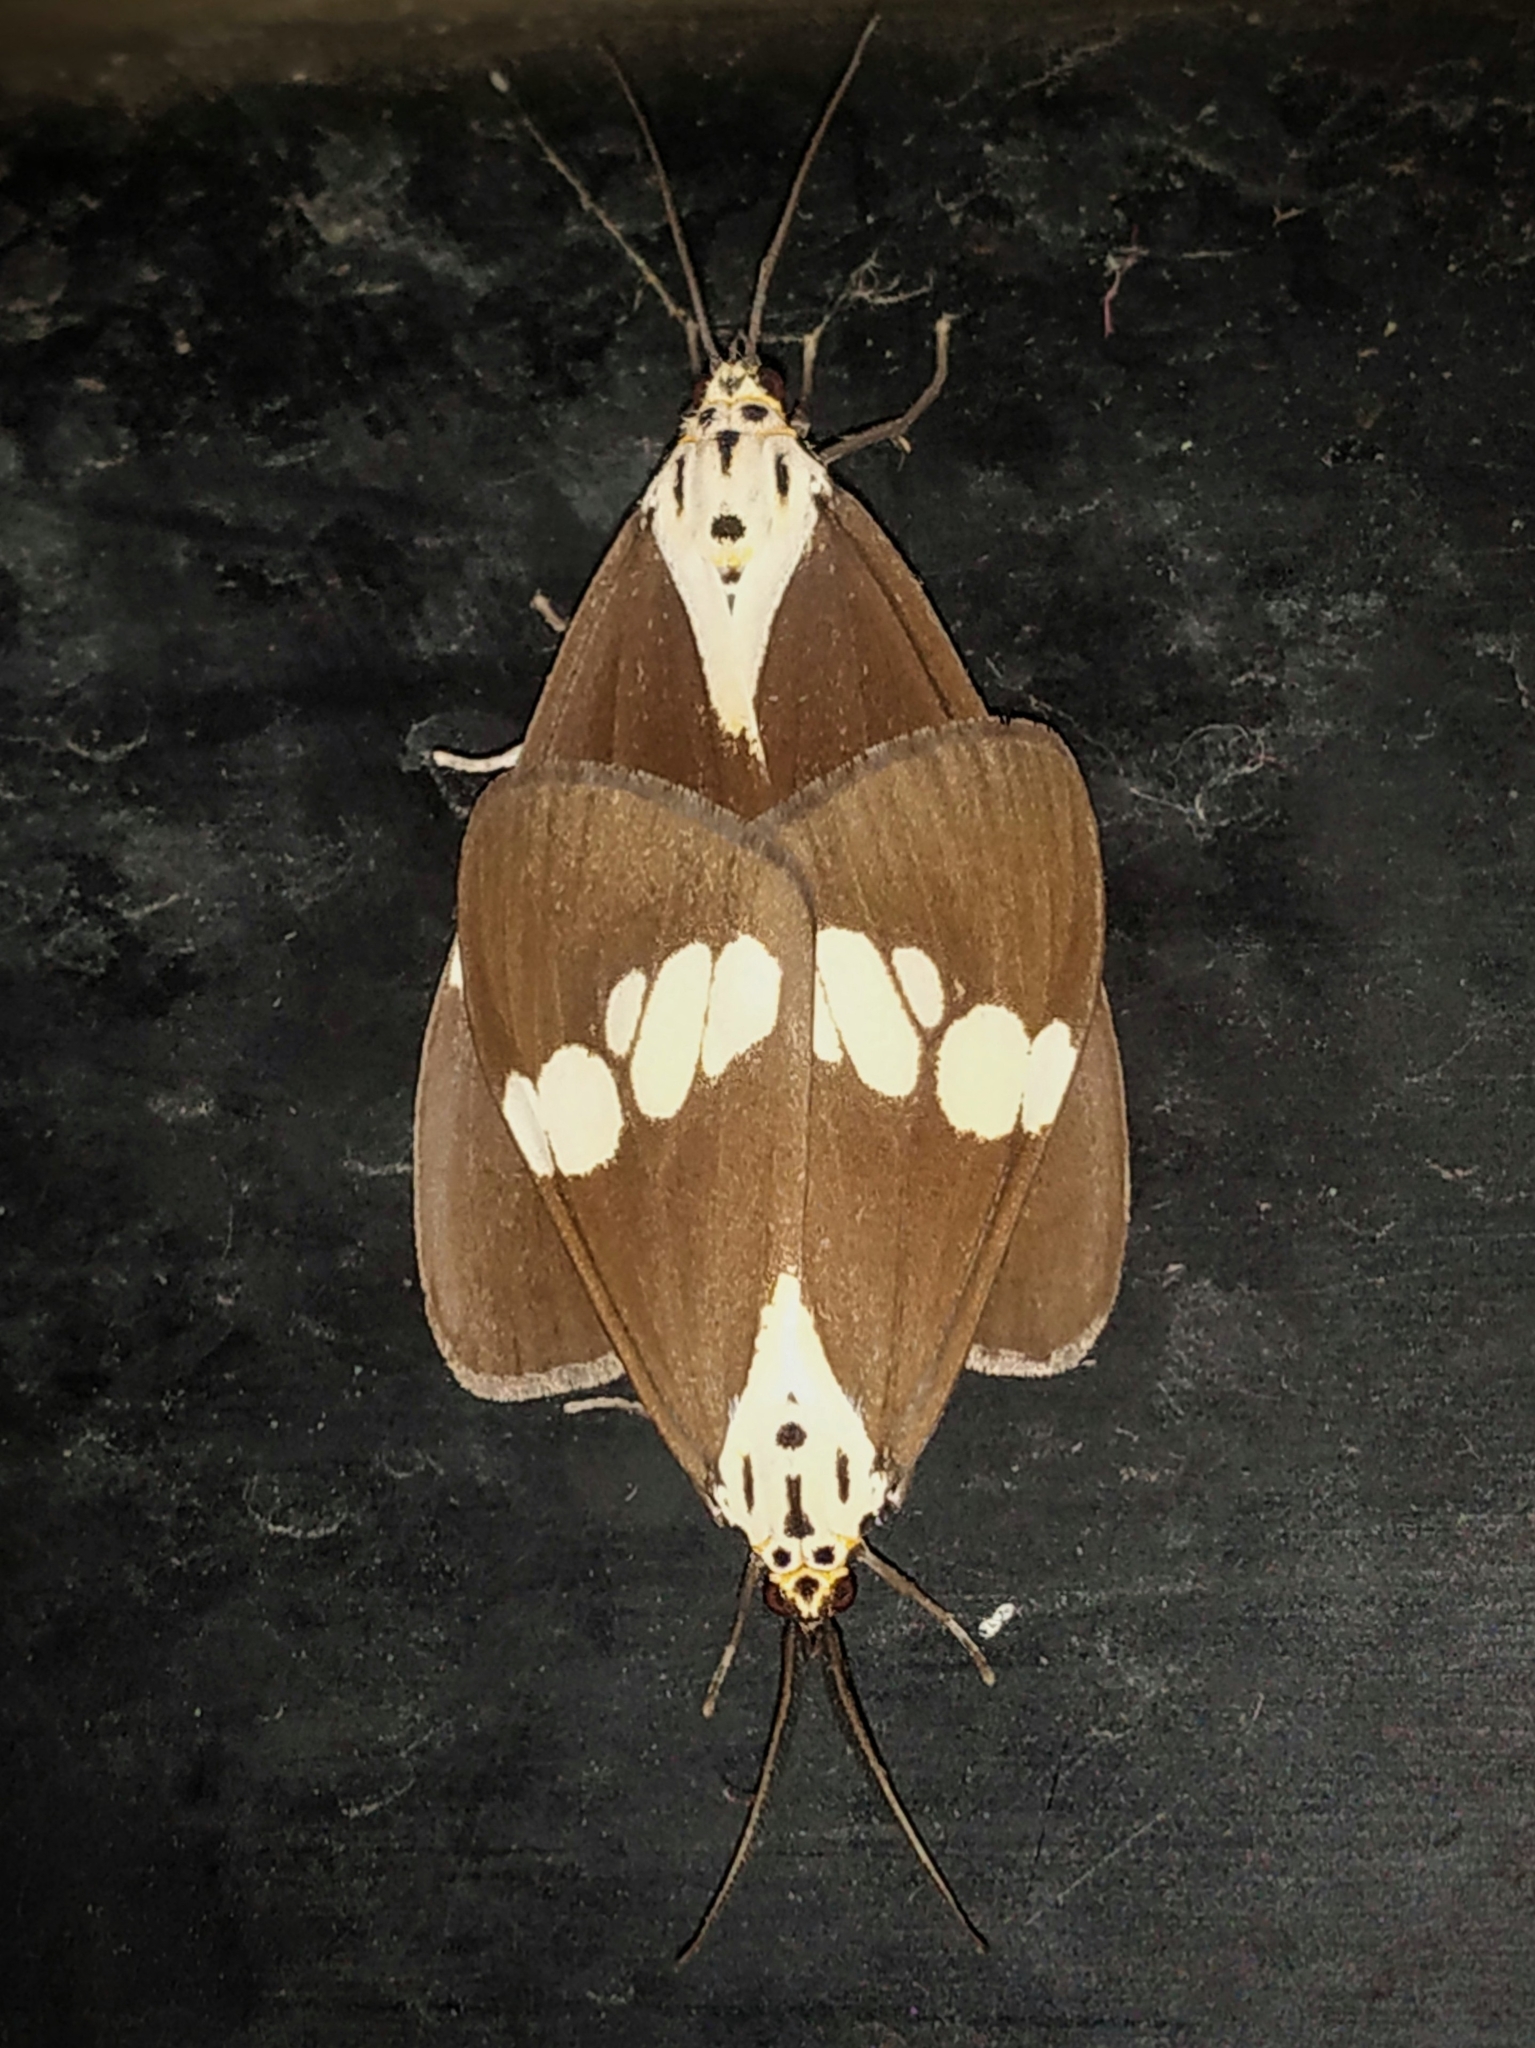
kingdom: Animalia
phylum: Arthropoda
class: Insecta
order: Lepidoptera
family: Erebidae
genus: Nyctemera
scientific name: Nyctemera lacticinia
